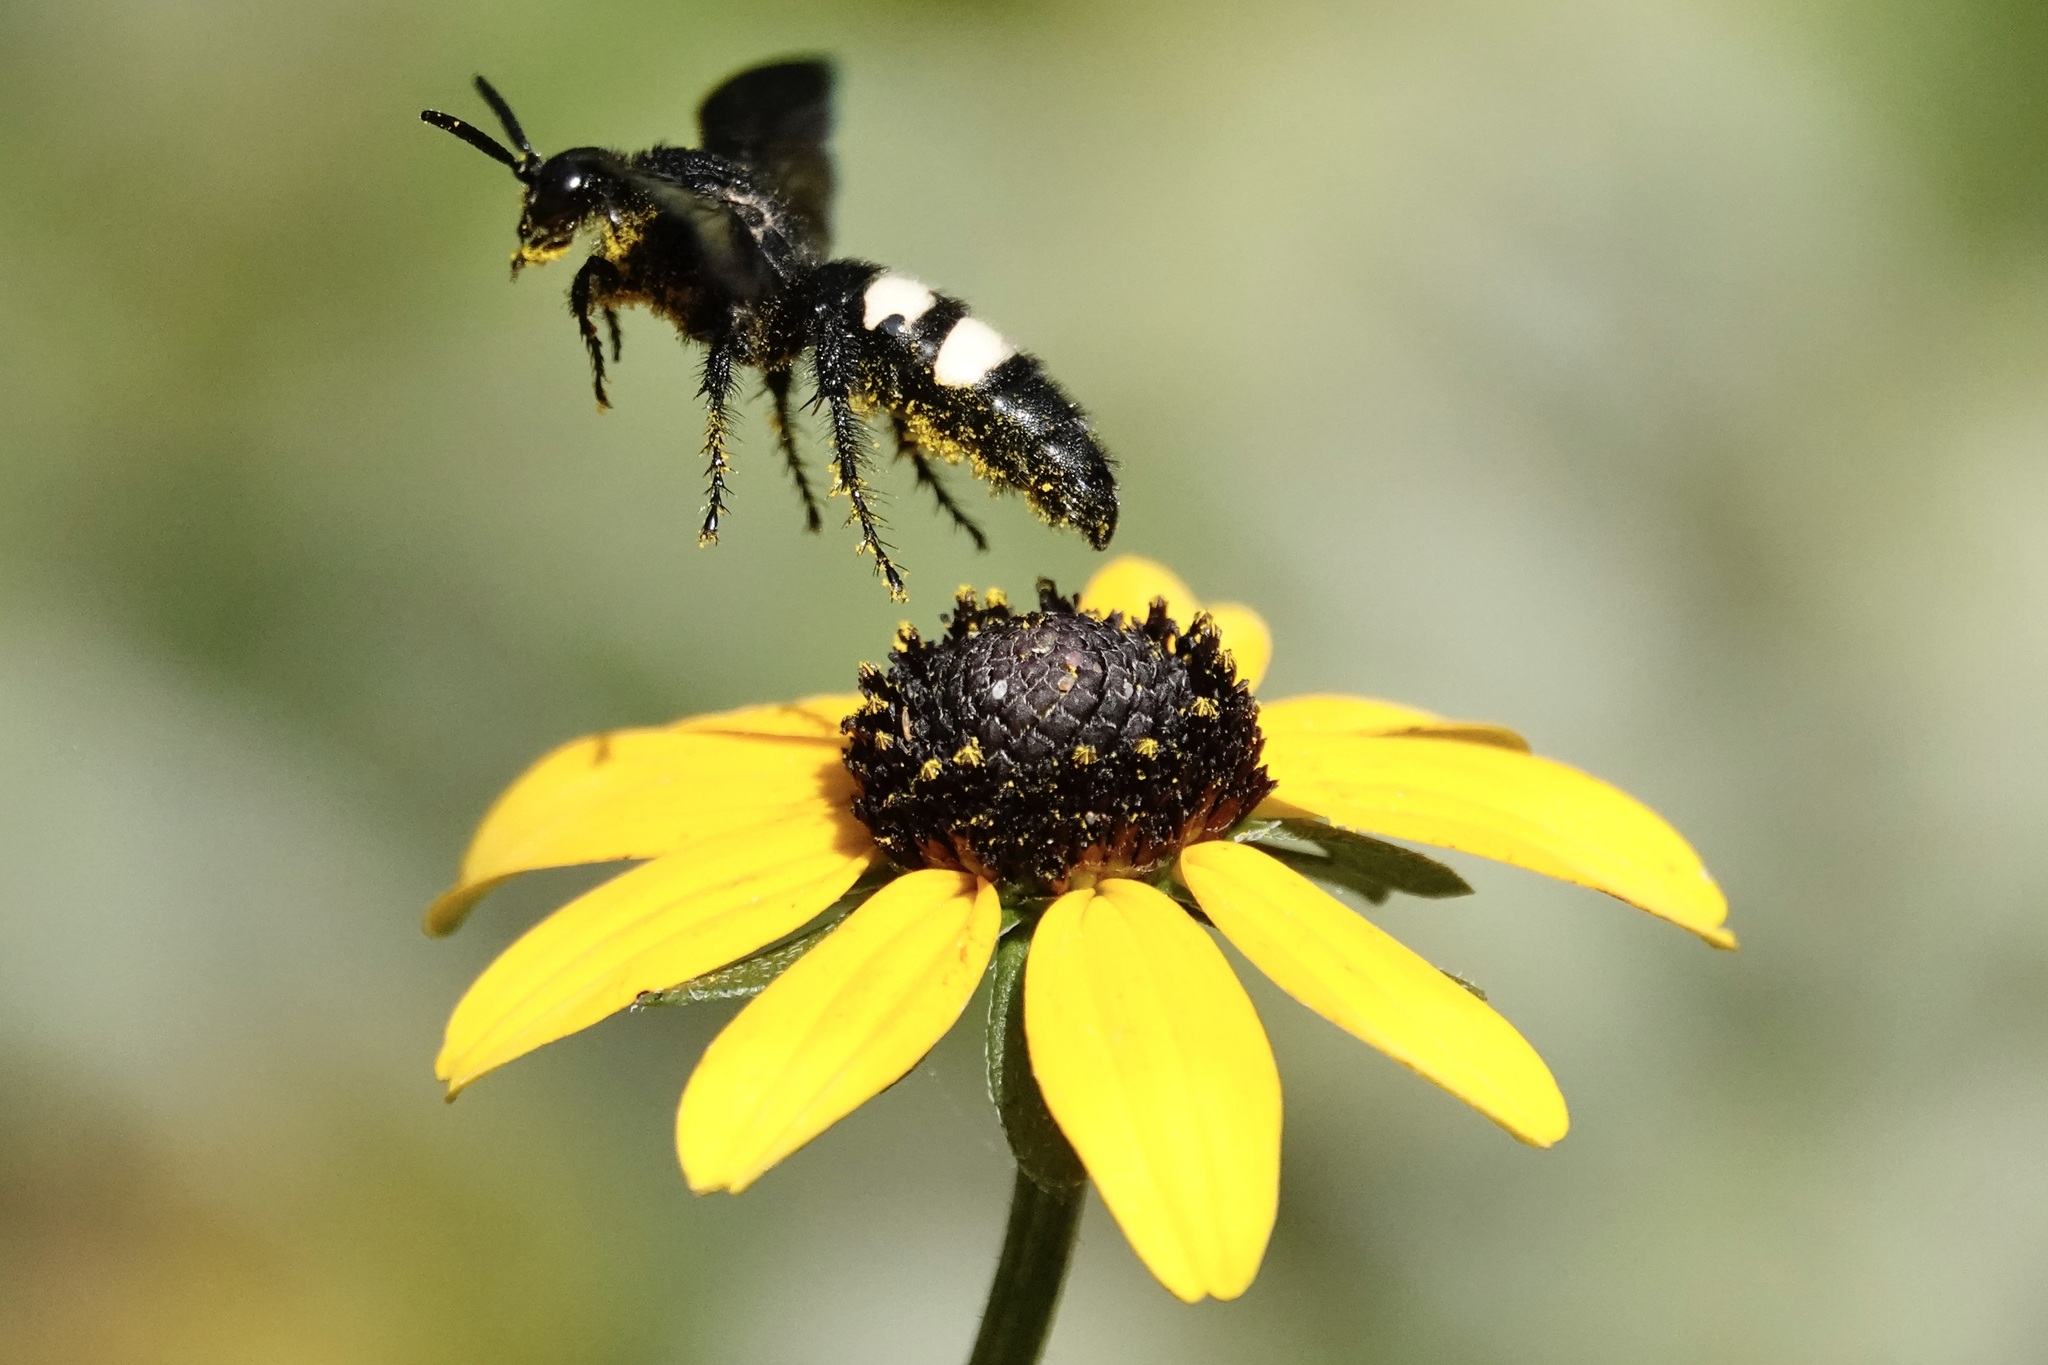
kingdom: Animalia
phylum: Arthropoda
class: Insecta
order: Hymenoptera
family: Scoliidae
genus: Scolia
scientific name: Scolia bicincta
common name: Double-banded scoliid wasp
